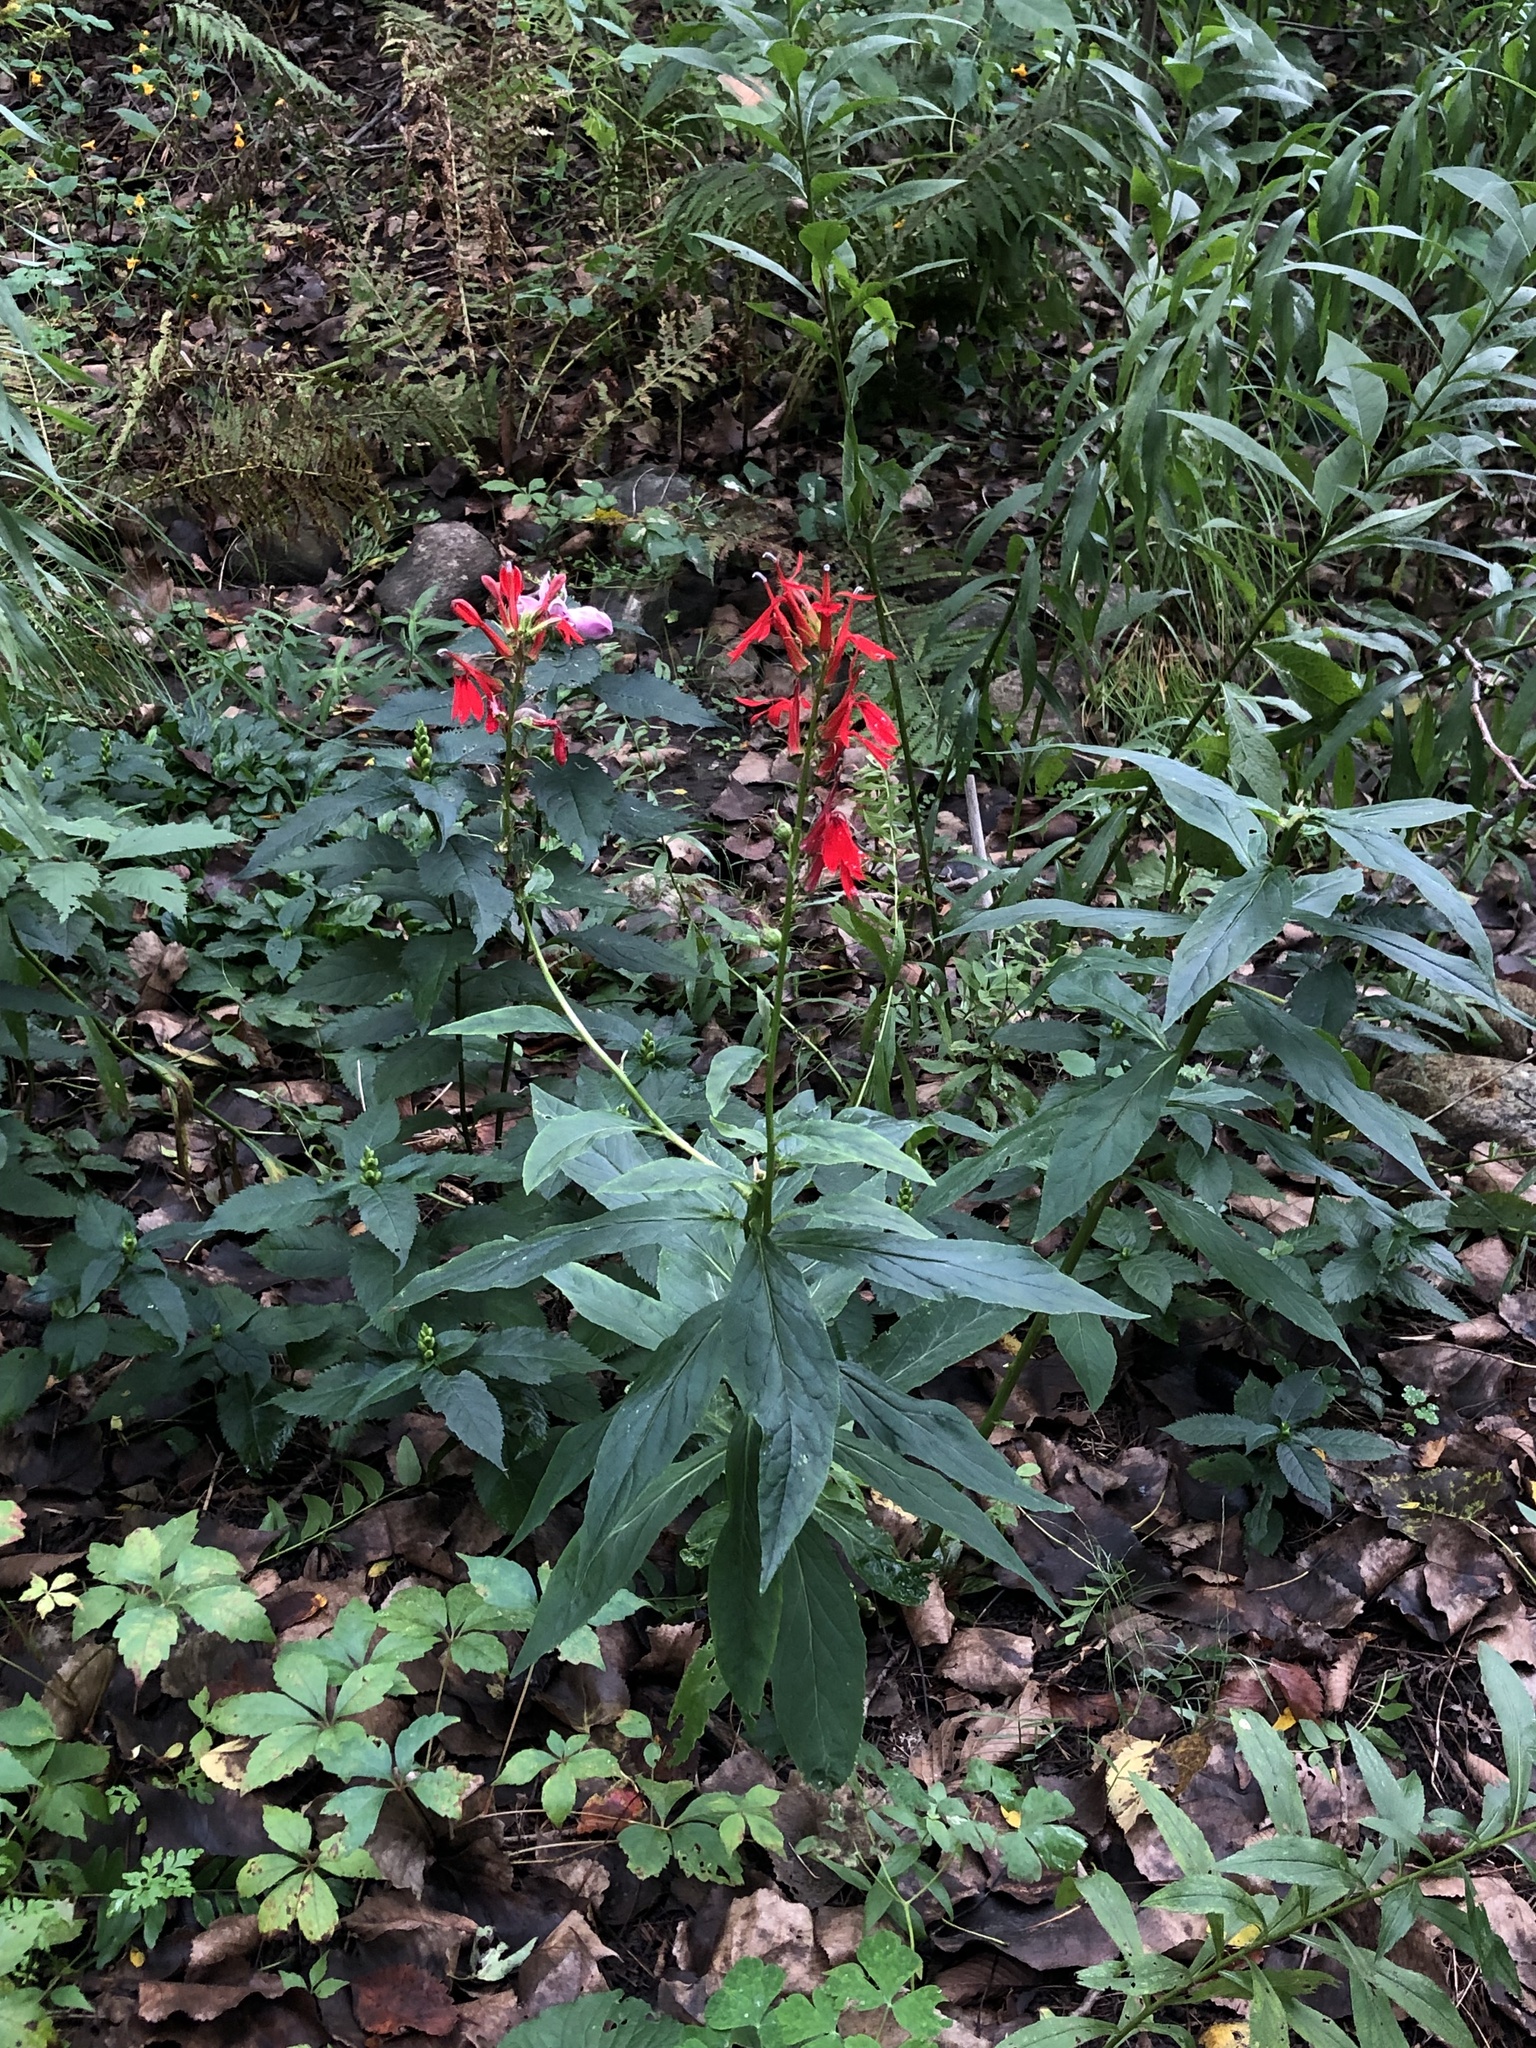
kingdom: Plantae
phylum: Tracheophyta
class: Magnoliopsida
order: Asterales
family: Campanulaceae
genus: Lobelia
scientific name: Lobelia cardinalis
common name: Cardinal flower
